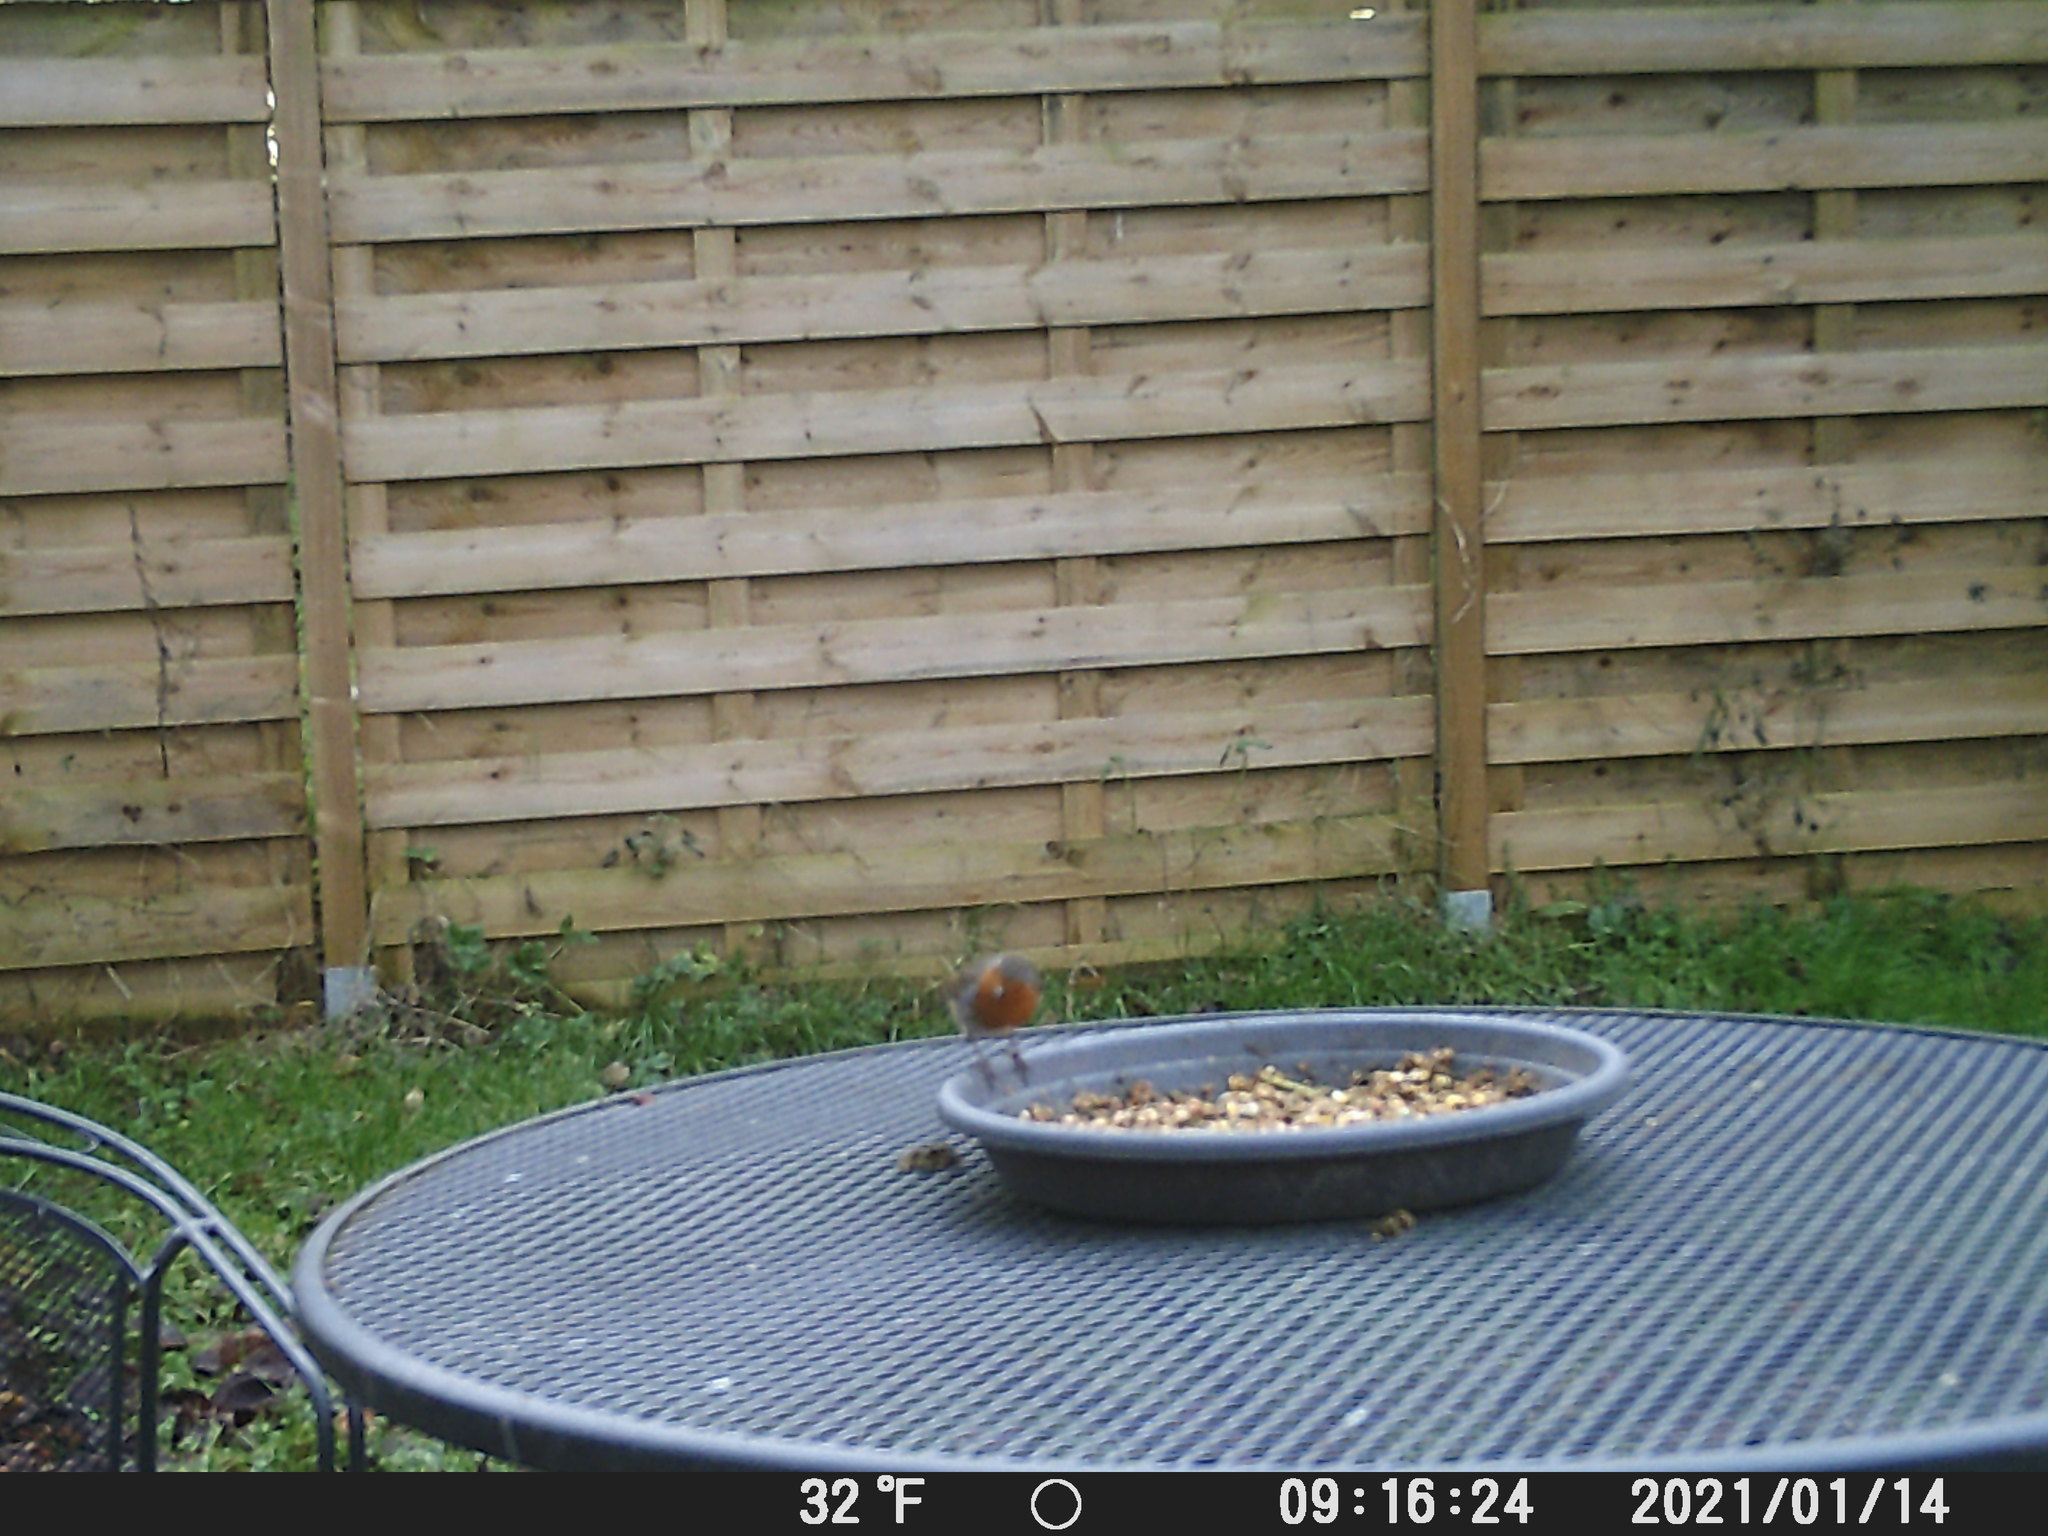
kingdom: Animalia
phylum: Chordata
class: Aves
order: Passeriformes
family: Muscicapidae
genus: Erithacus
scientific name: Erithacus rubecula
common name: European robin
